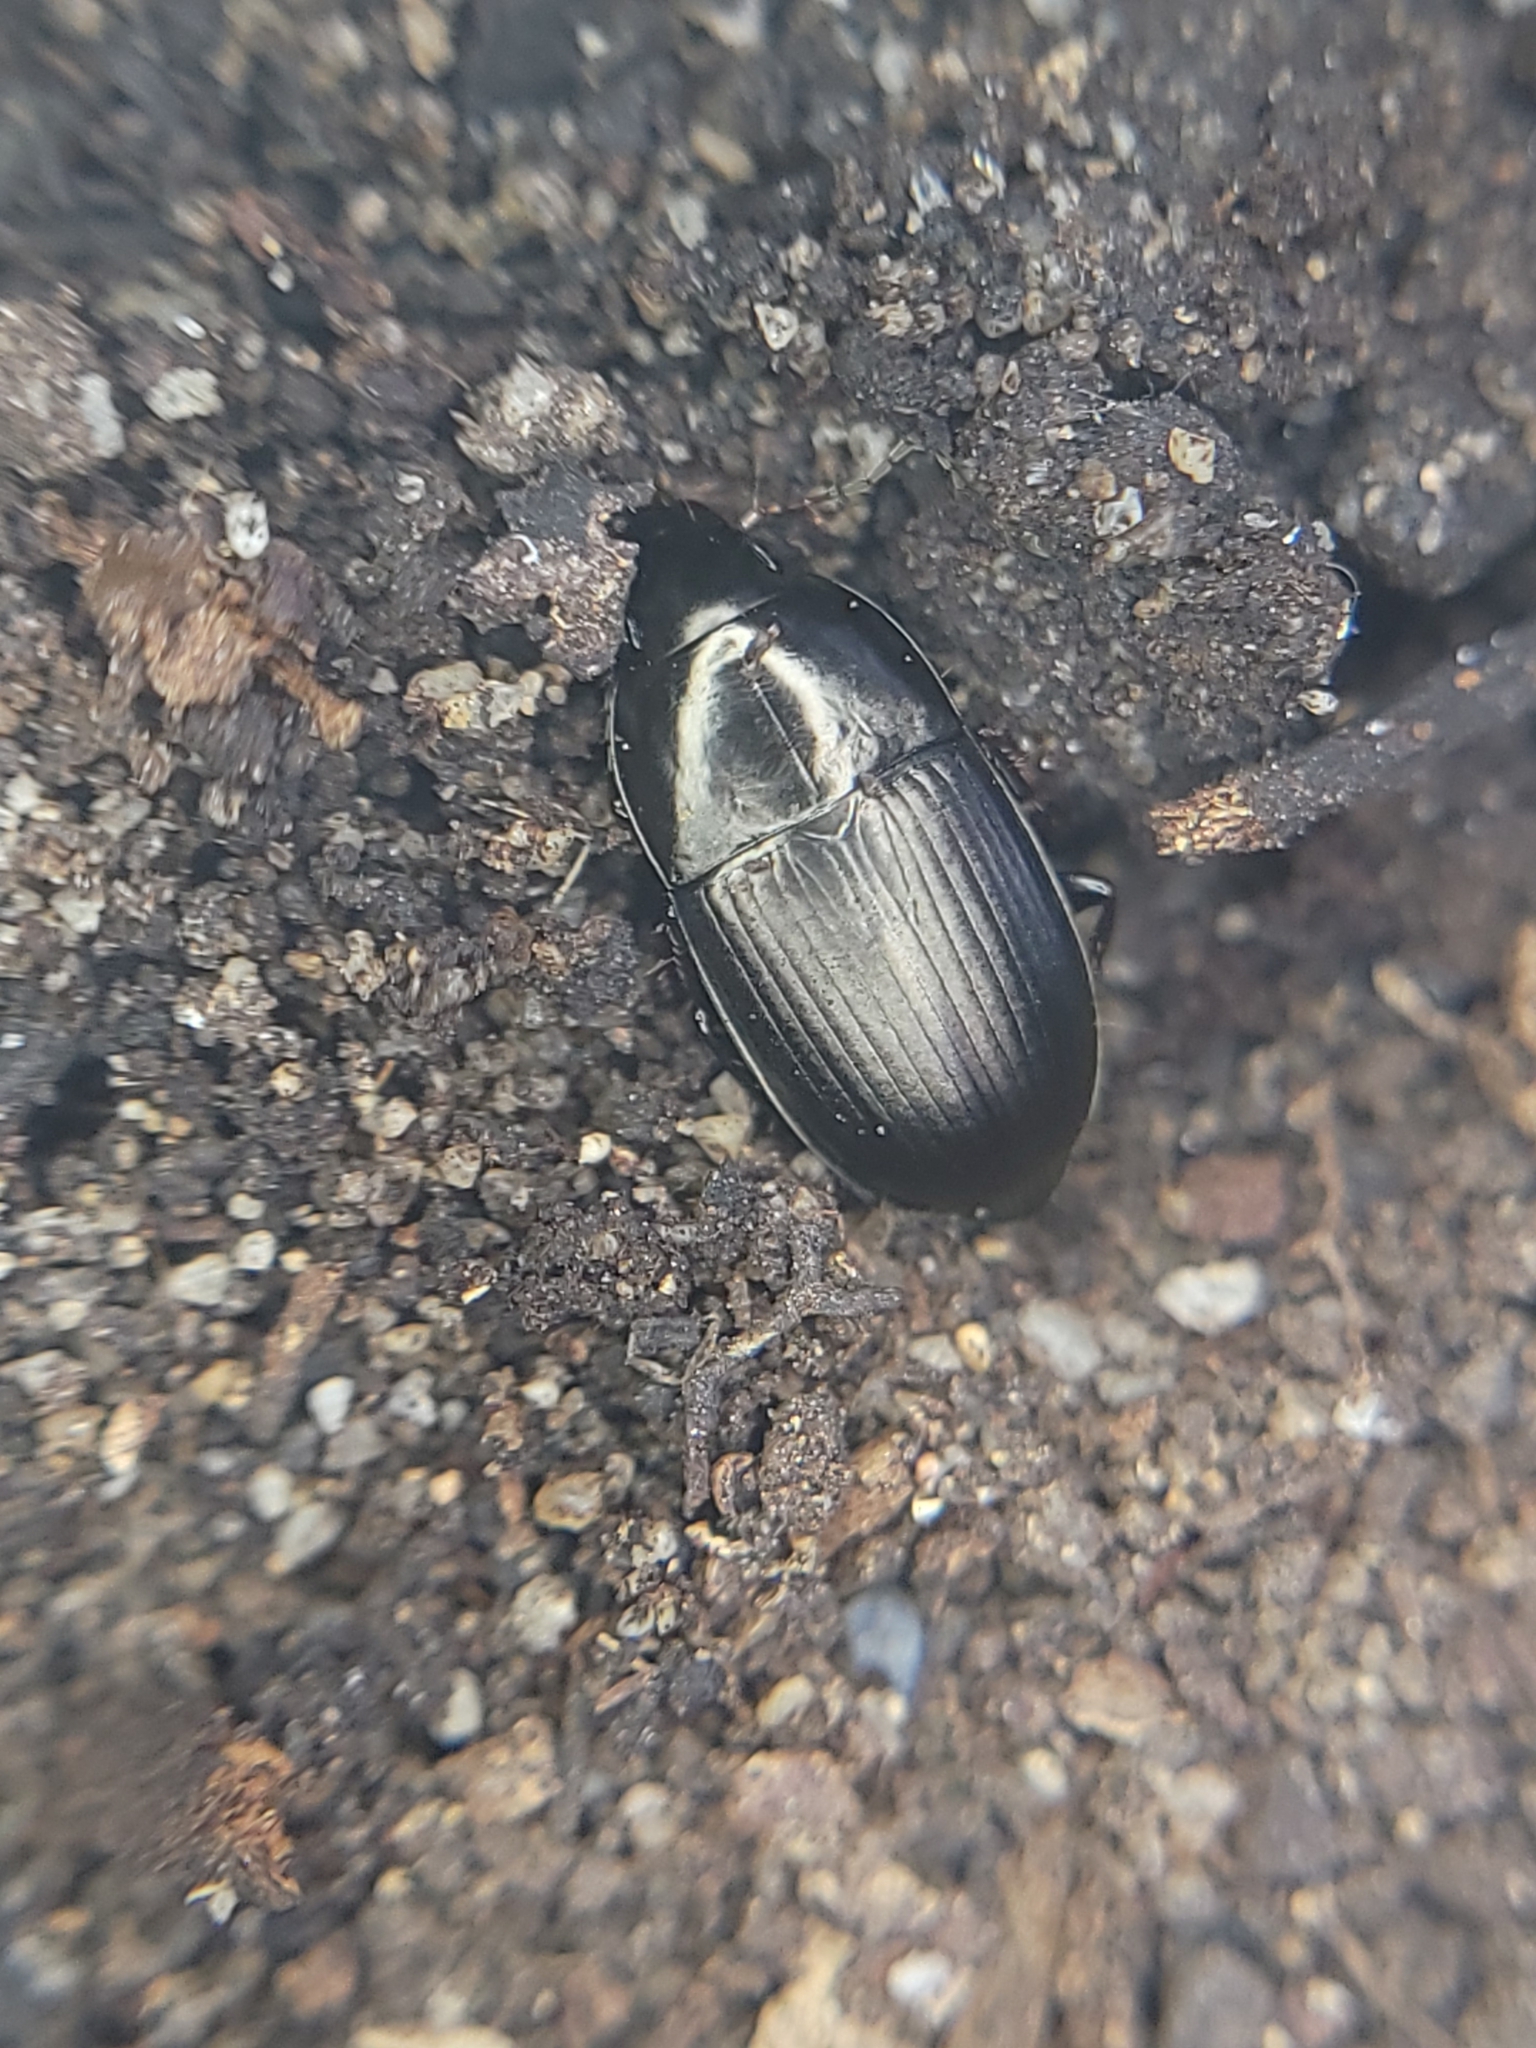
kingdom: Animalia
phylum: Arthropoda
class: Insecta
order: Coleoptera
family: Carabidae
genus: Amara
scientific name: Amara conflata
